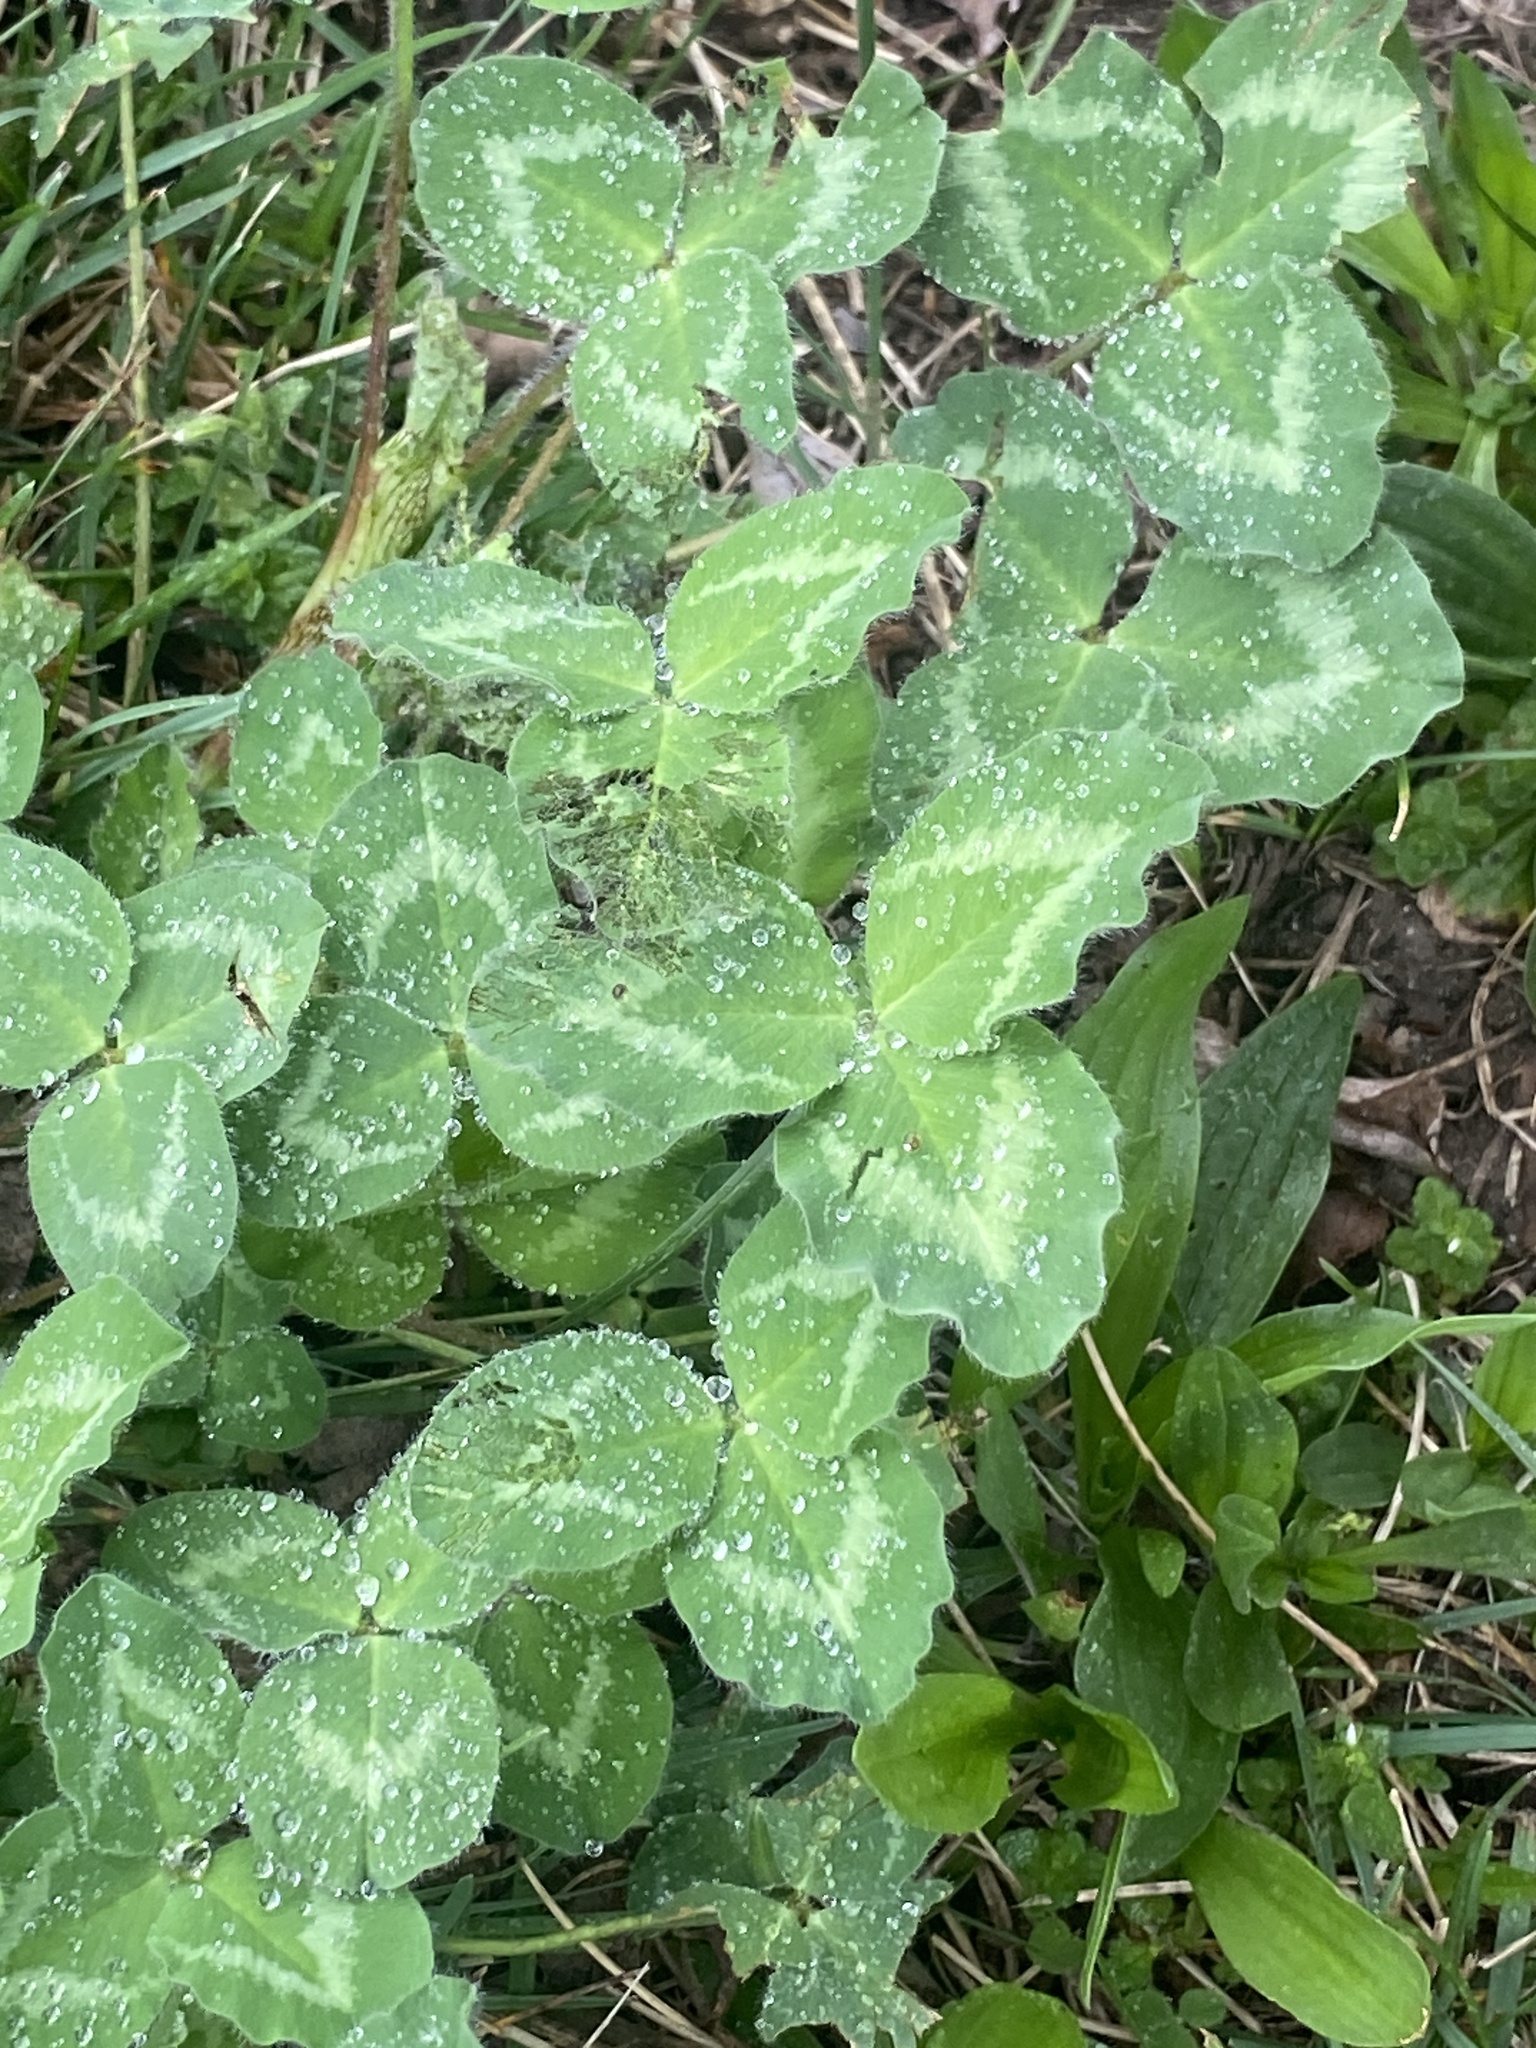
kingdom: Plantae
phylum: Tracheophyta
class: Magnoliopsida
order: Fabales
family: Fabaceae
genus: Trifolium
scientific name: Trifolium pratense
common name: Red clover
